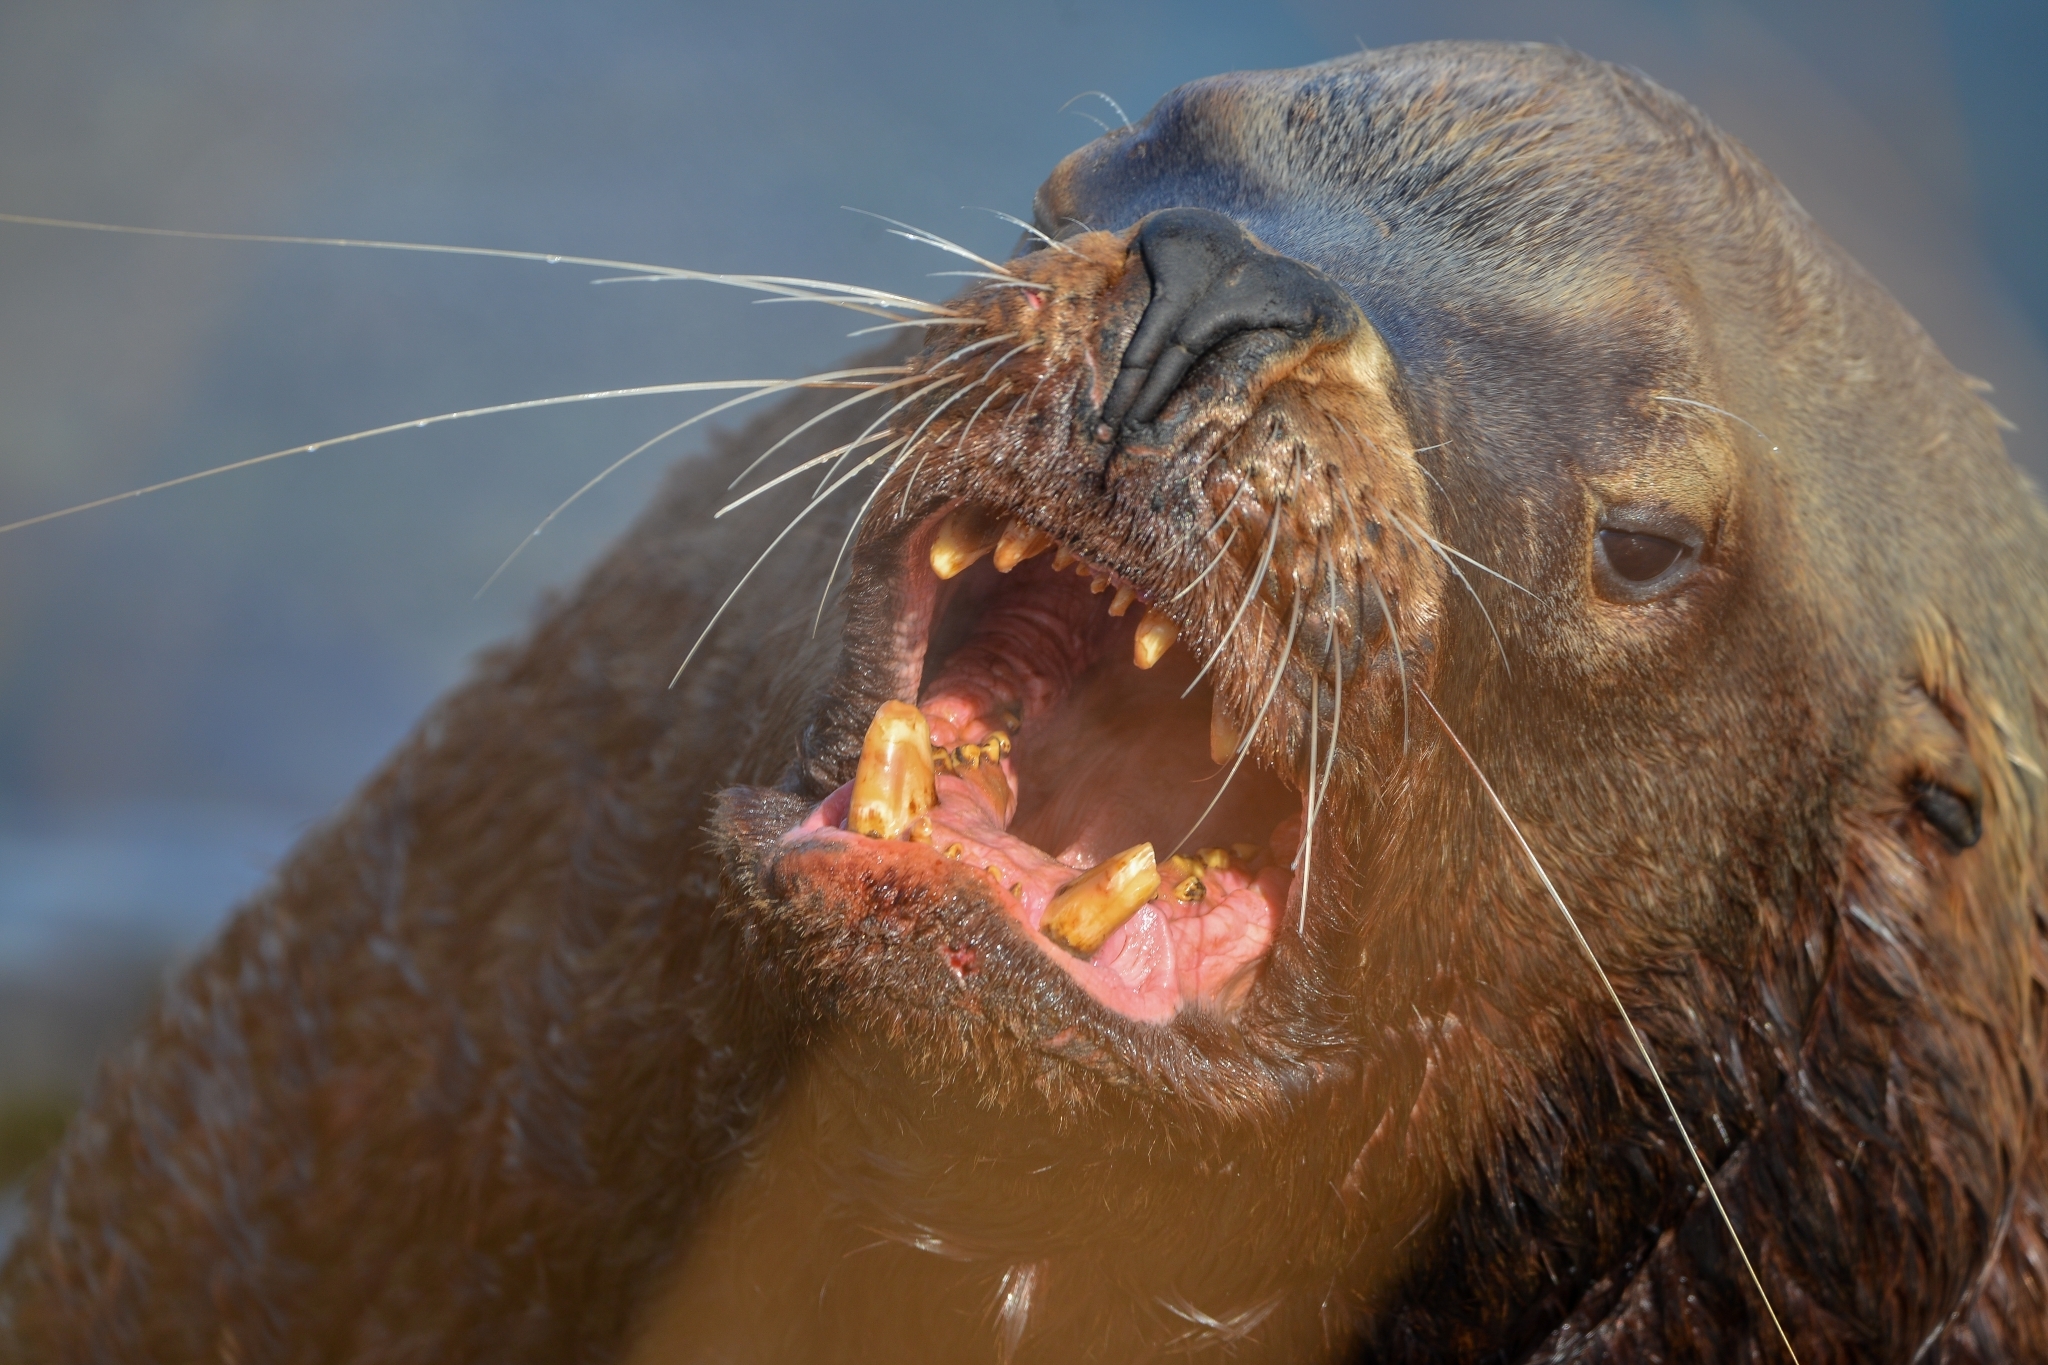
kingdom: Animalia
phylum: Chordata
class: Mammalia
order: Carnivora
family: Otariidae
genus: Eumetopias
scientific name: Eumetopias jubatus
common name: Steller sea lion
